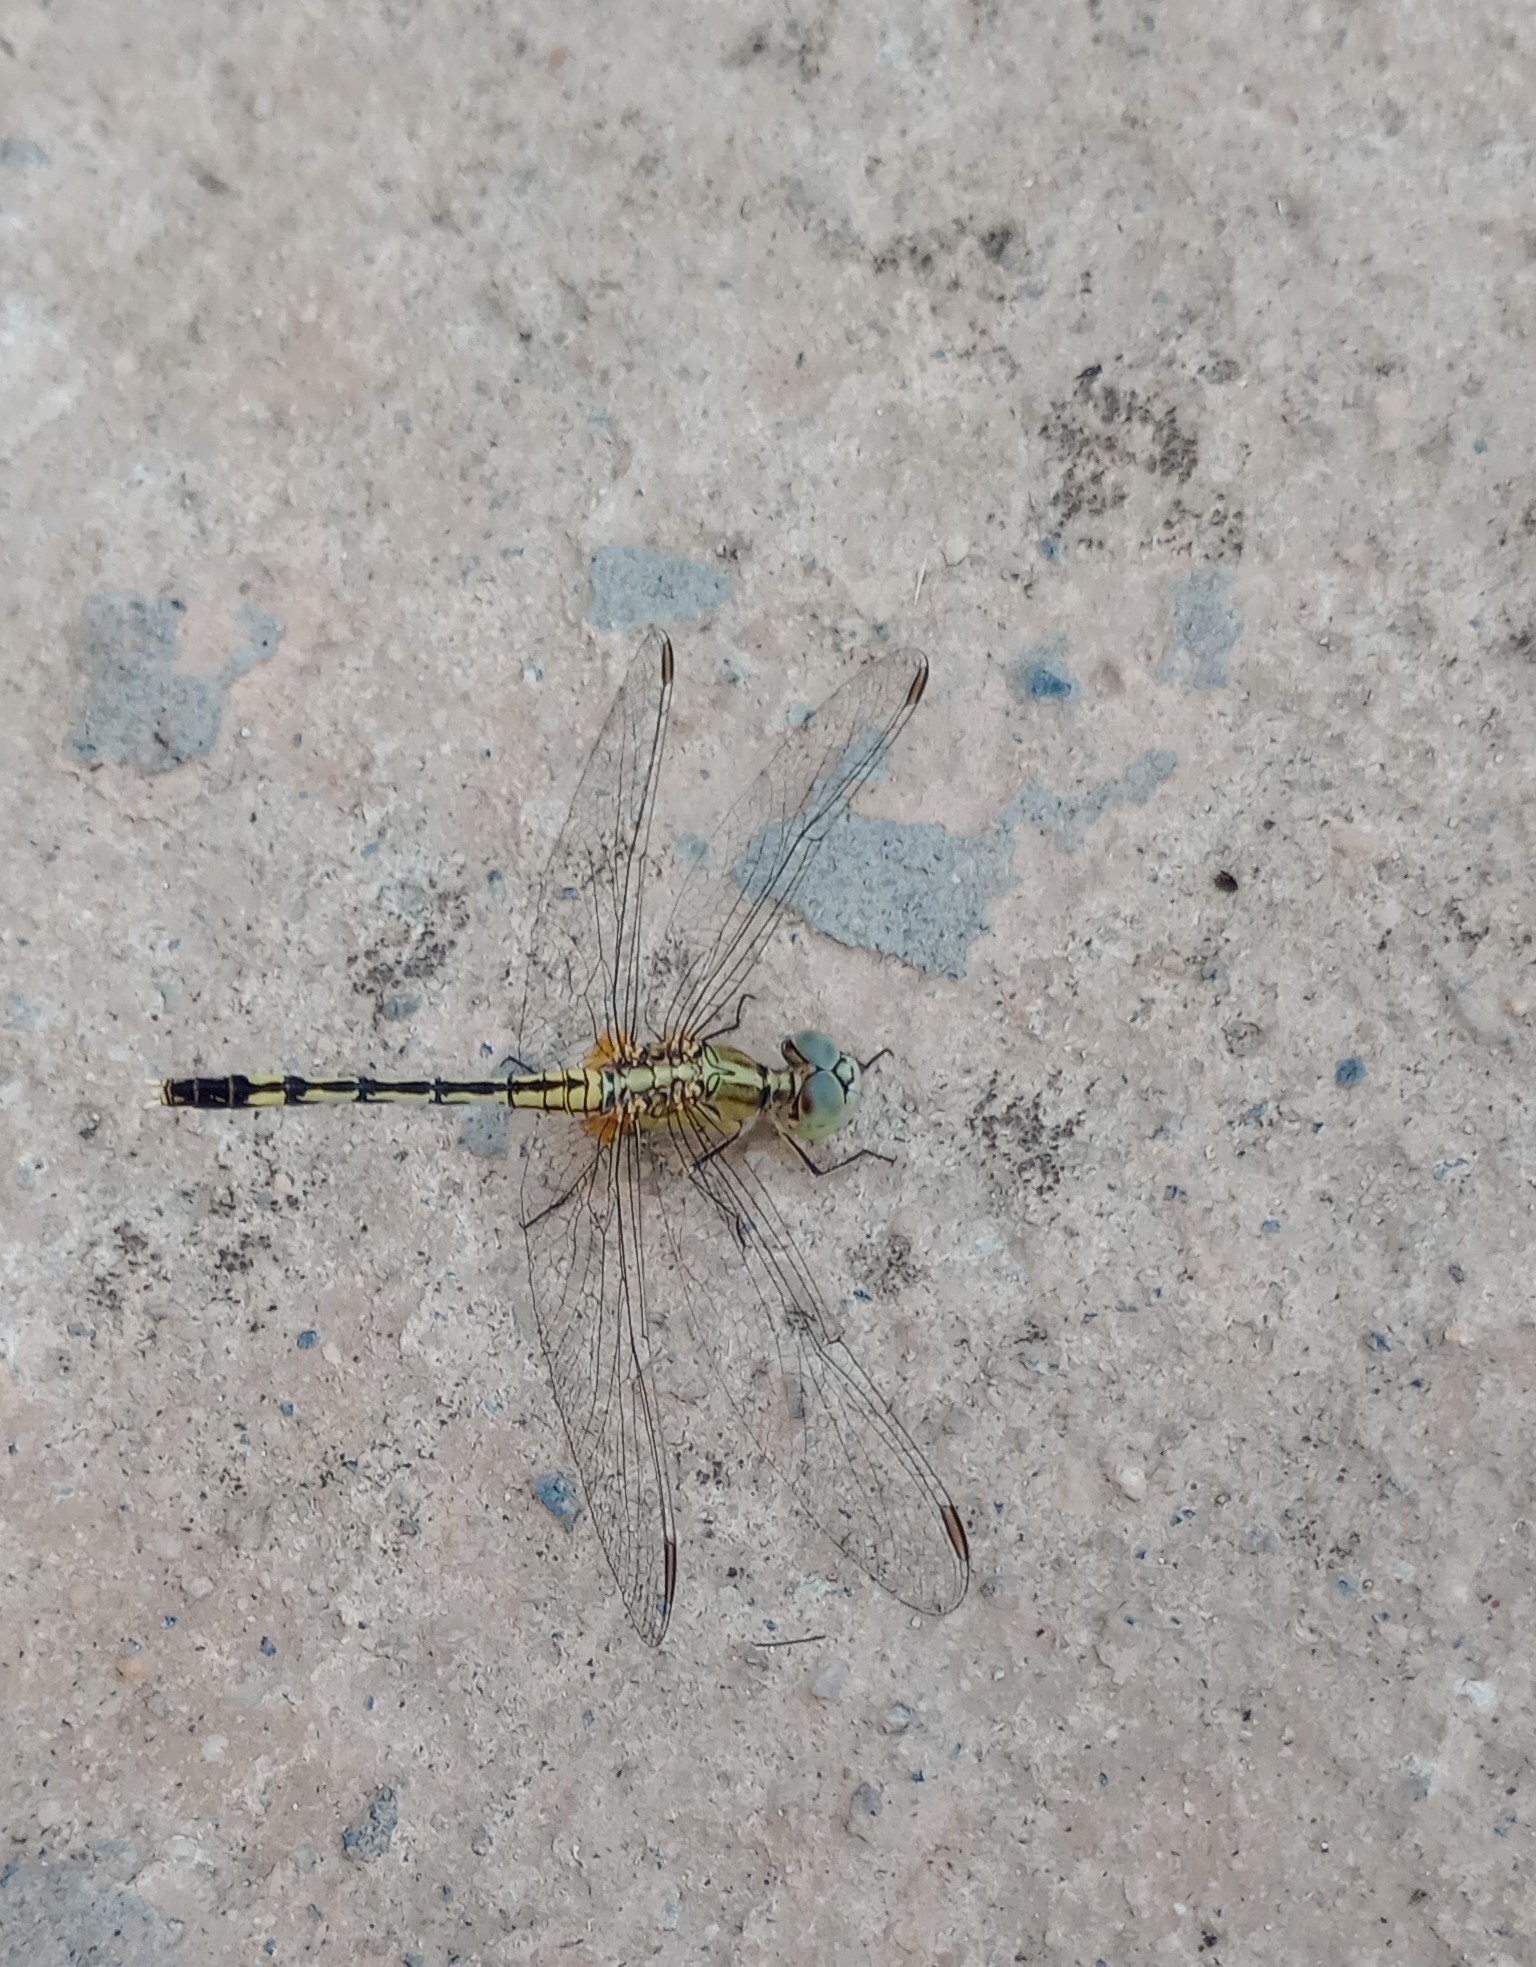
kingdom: Animalia
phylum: Arthropoda
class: Insecta
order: Odonata
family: Libellulidae
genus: Diplacodes
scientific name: Diplacodes trivialis
